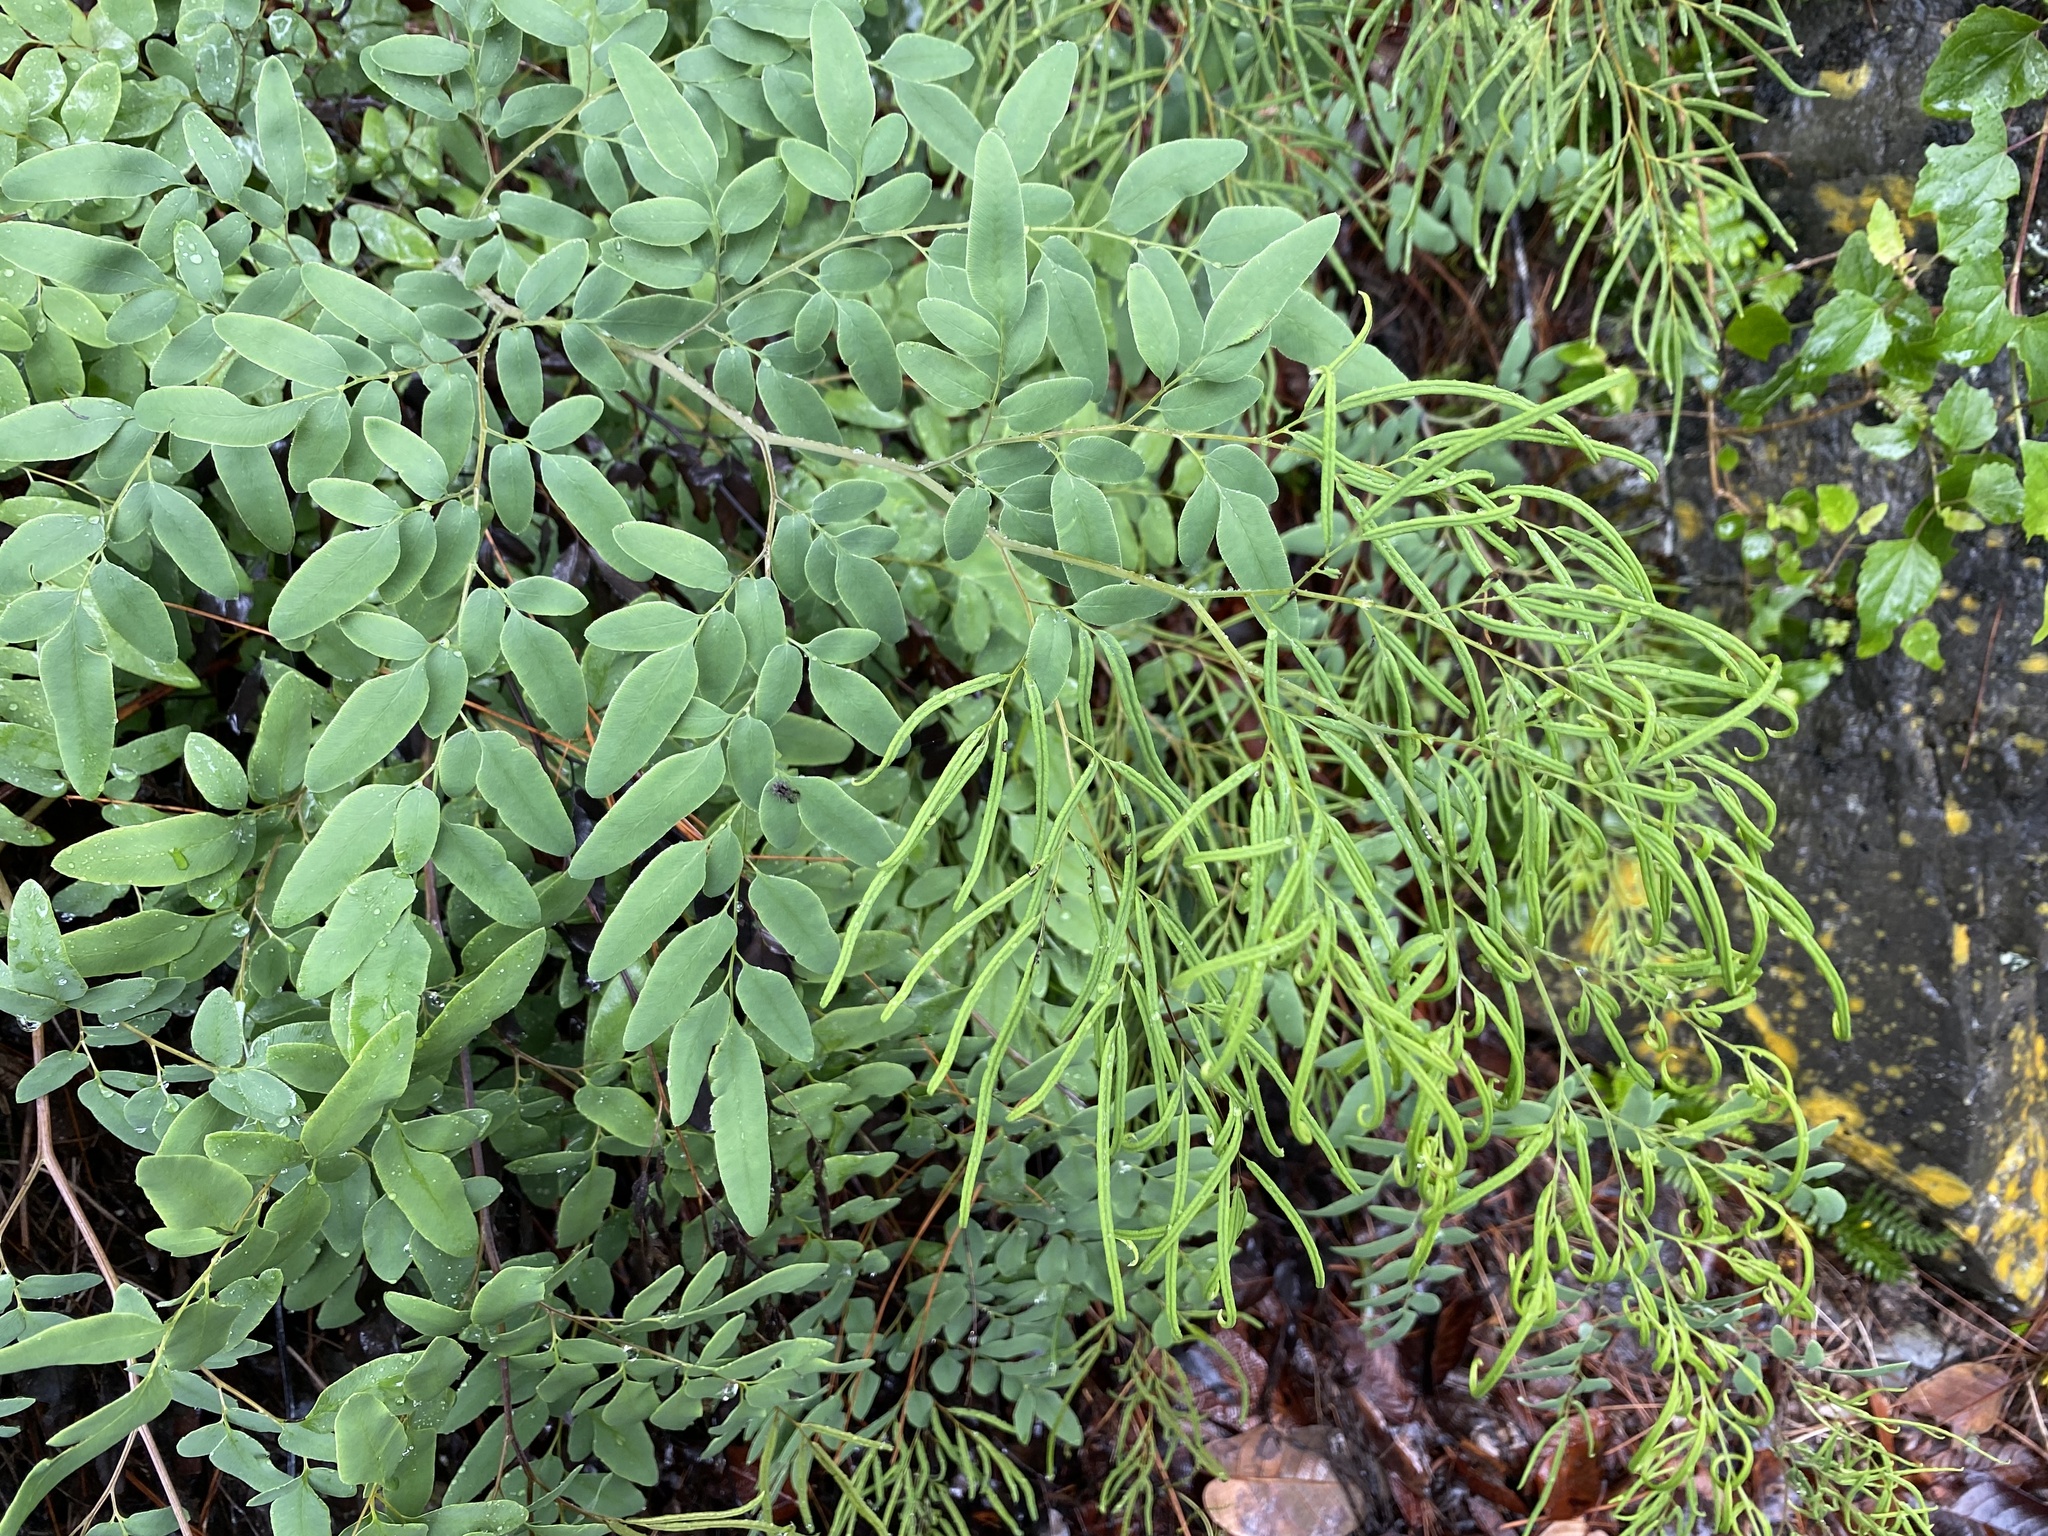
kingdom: Plantae
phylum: Tracheophyta
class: Polypodiopsida
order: Polypodiales
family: Pteridaceae
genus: Llavea
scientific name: Llavea cordifolia
